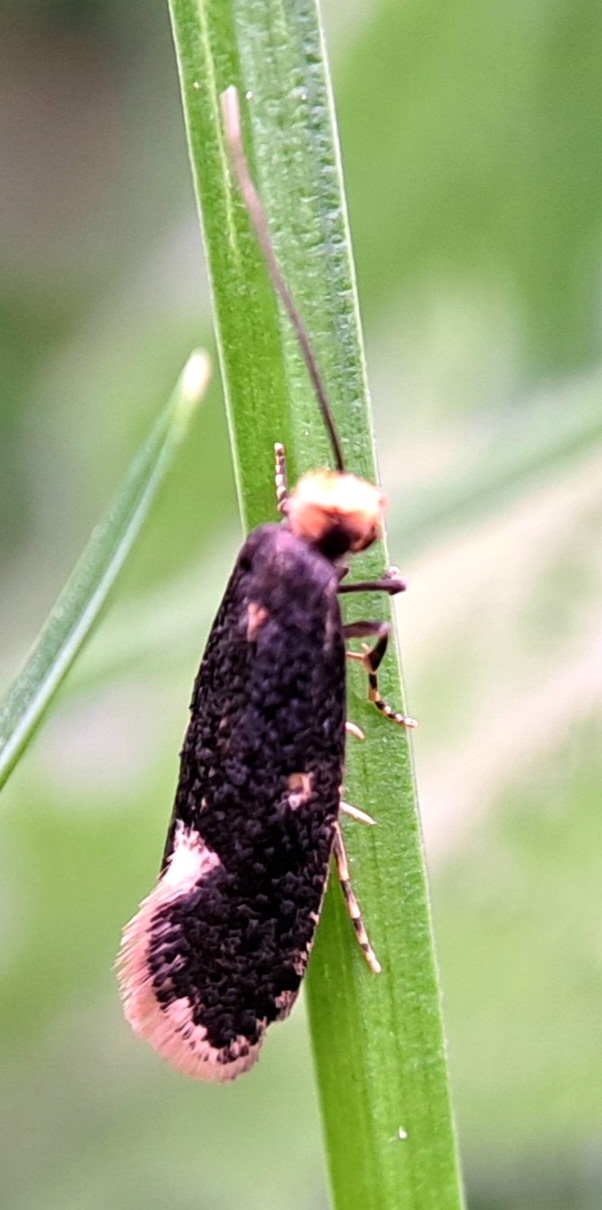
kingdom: Animalia
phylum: Arthropoda
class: Insecta
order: Lepidoptera
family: Tineidae
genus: Monopis
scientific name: Monopis weaverella
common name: Carrion moth
